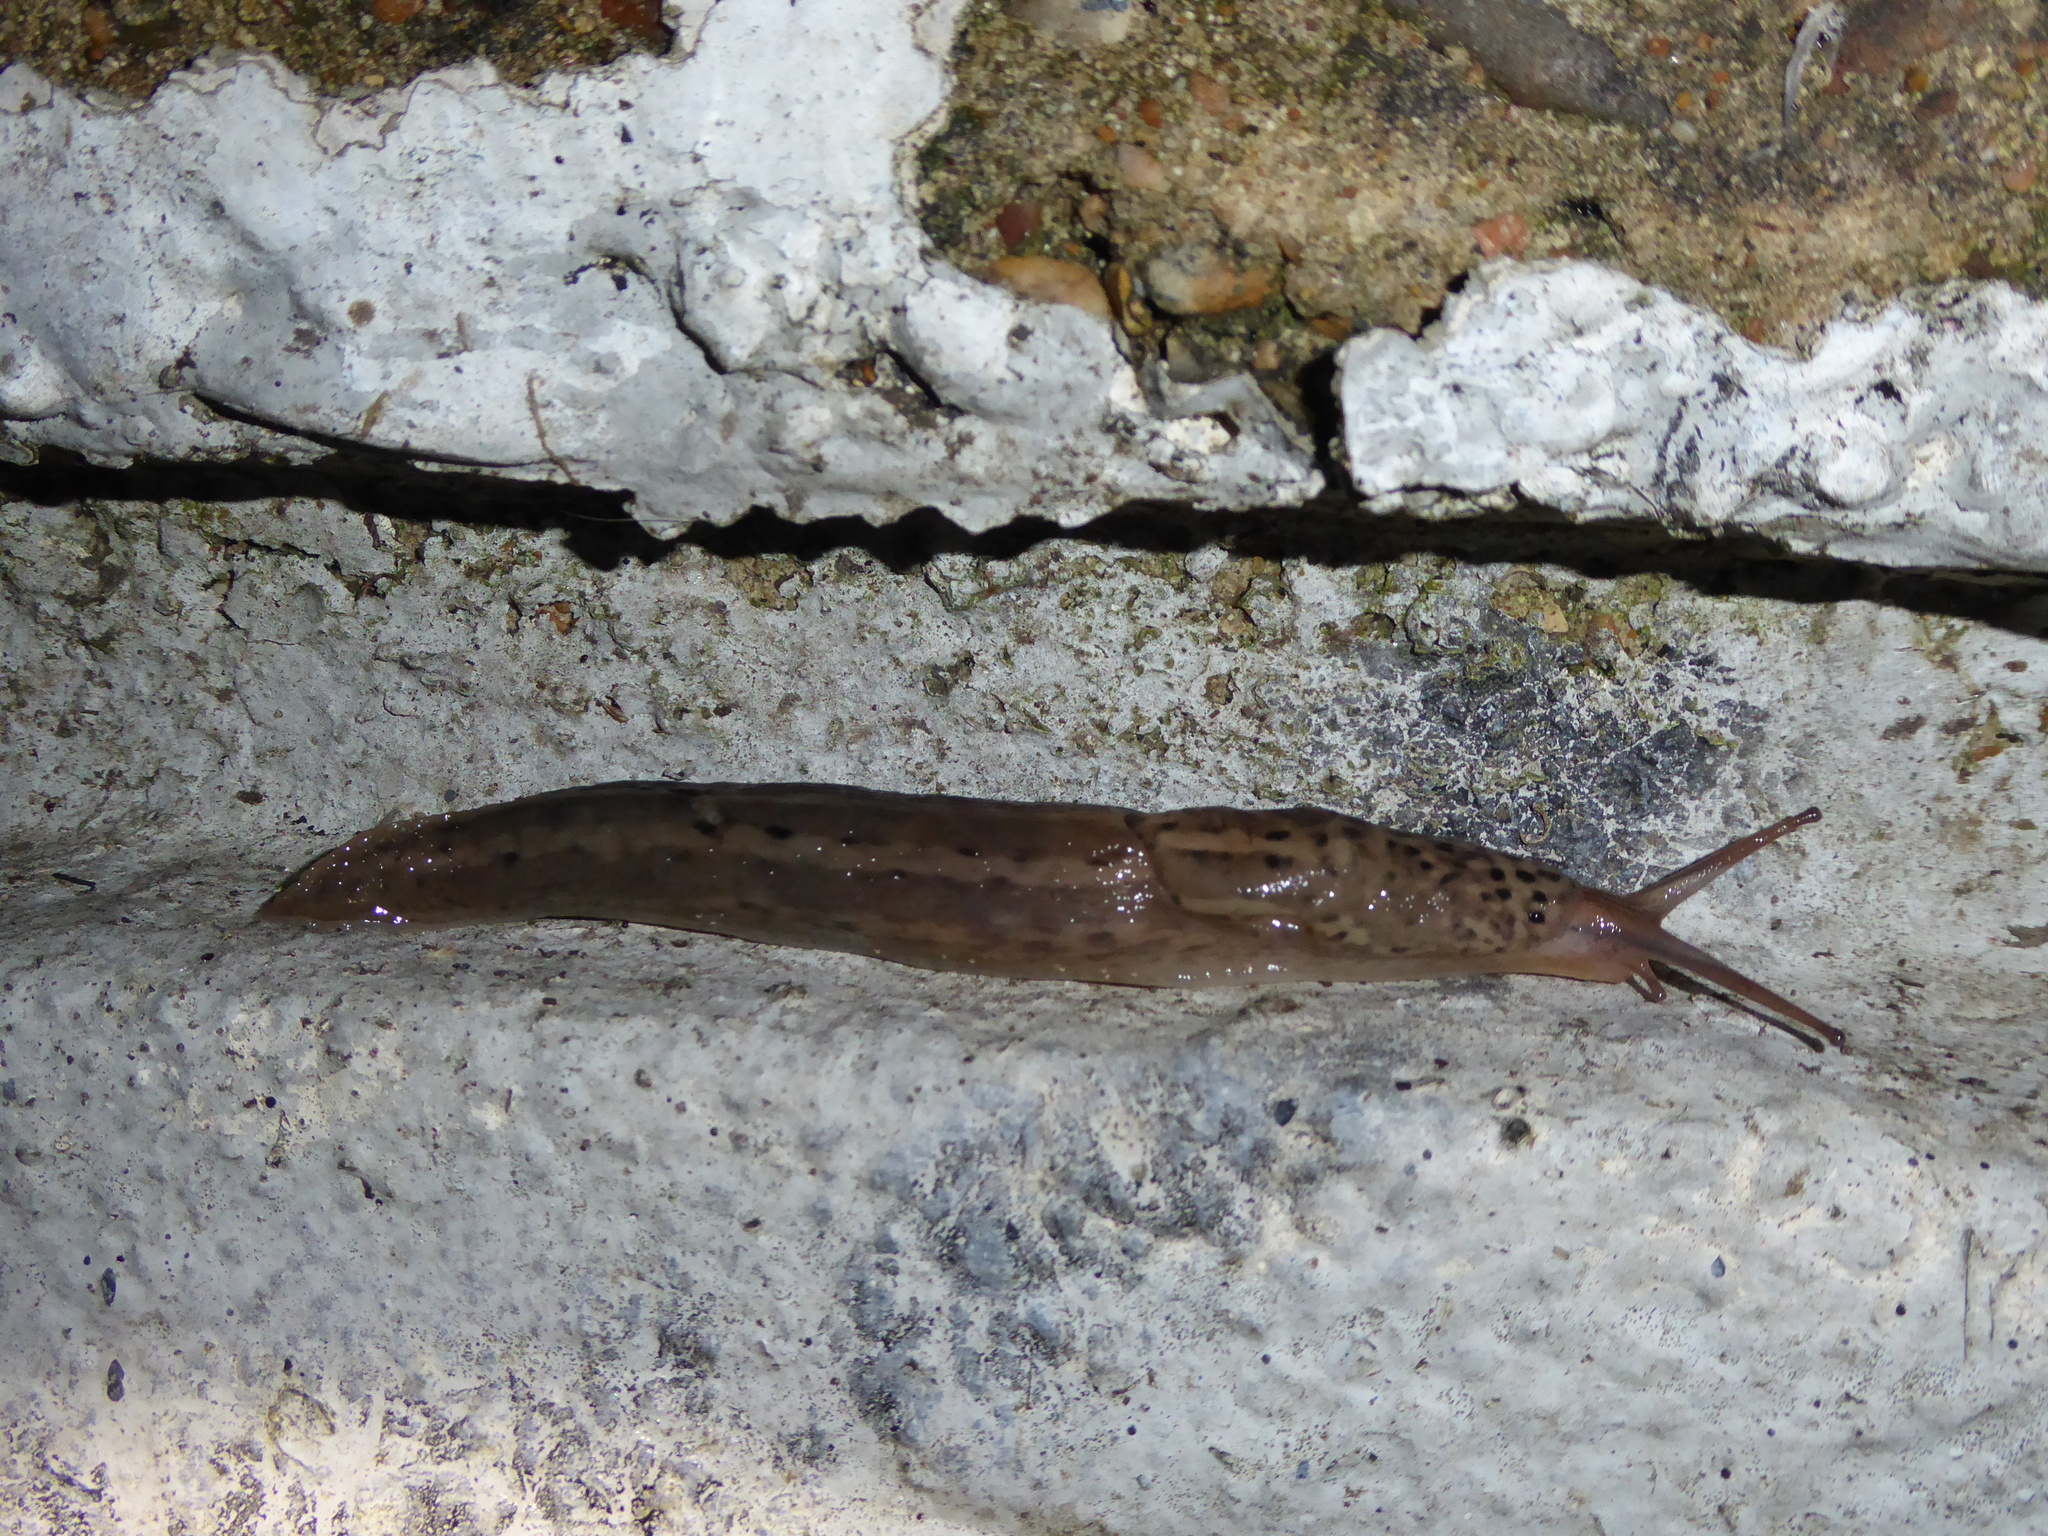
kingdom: Animalia
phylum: Mollusca
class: Gastropoda
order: Stylommatophora
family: Limacidae
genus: Limax
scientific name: Limax maximus
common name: Great grey slug
